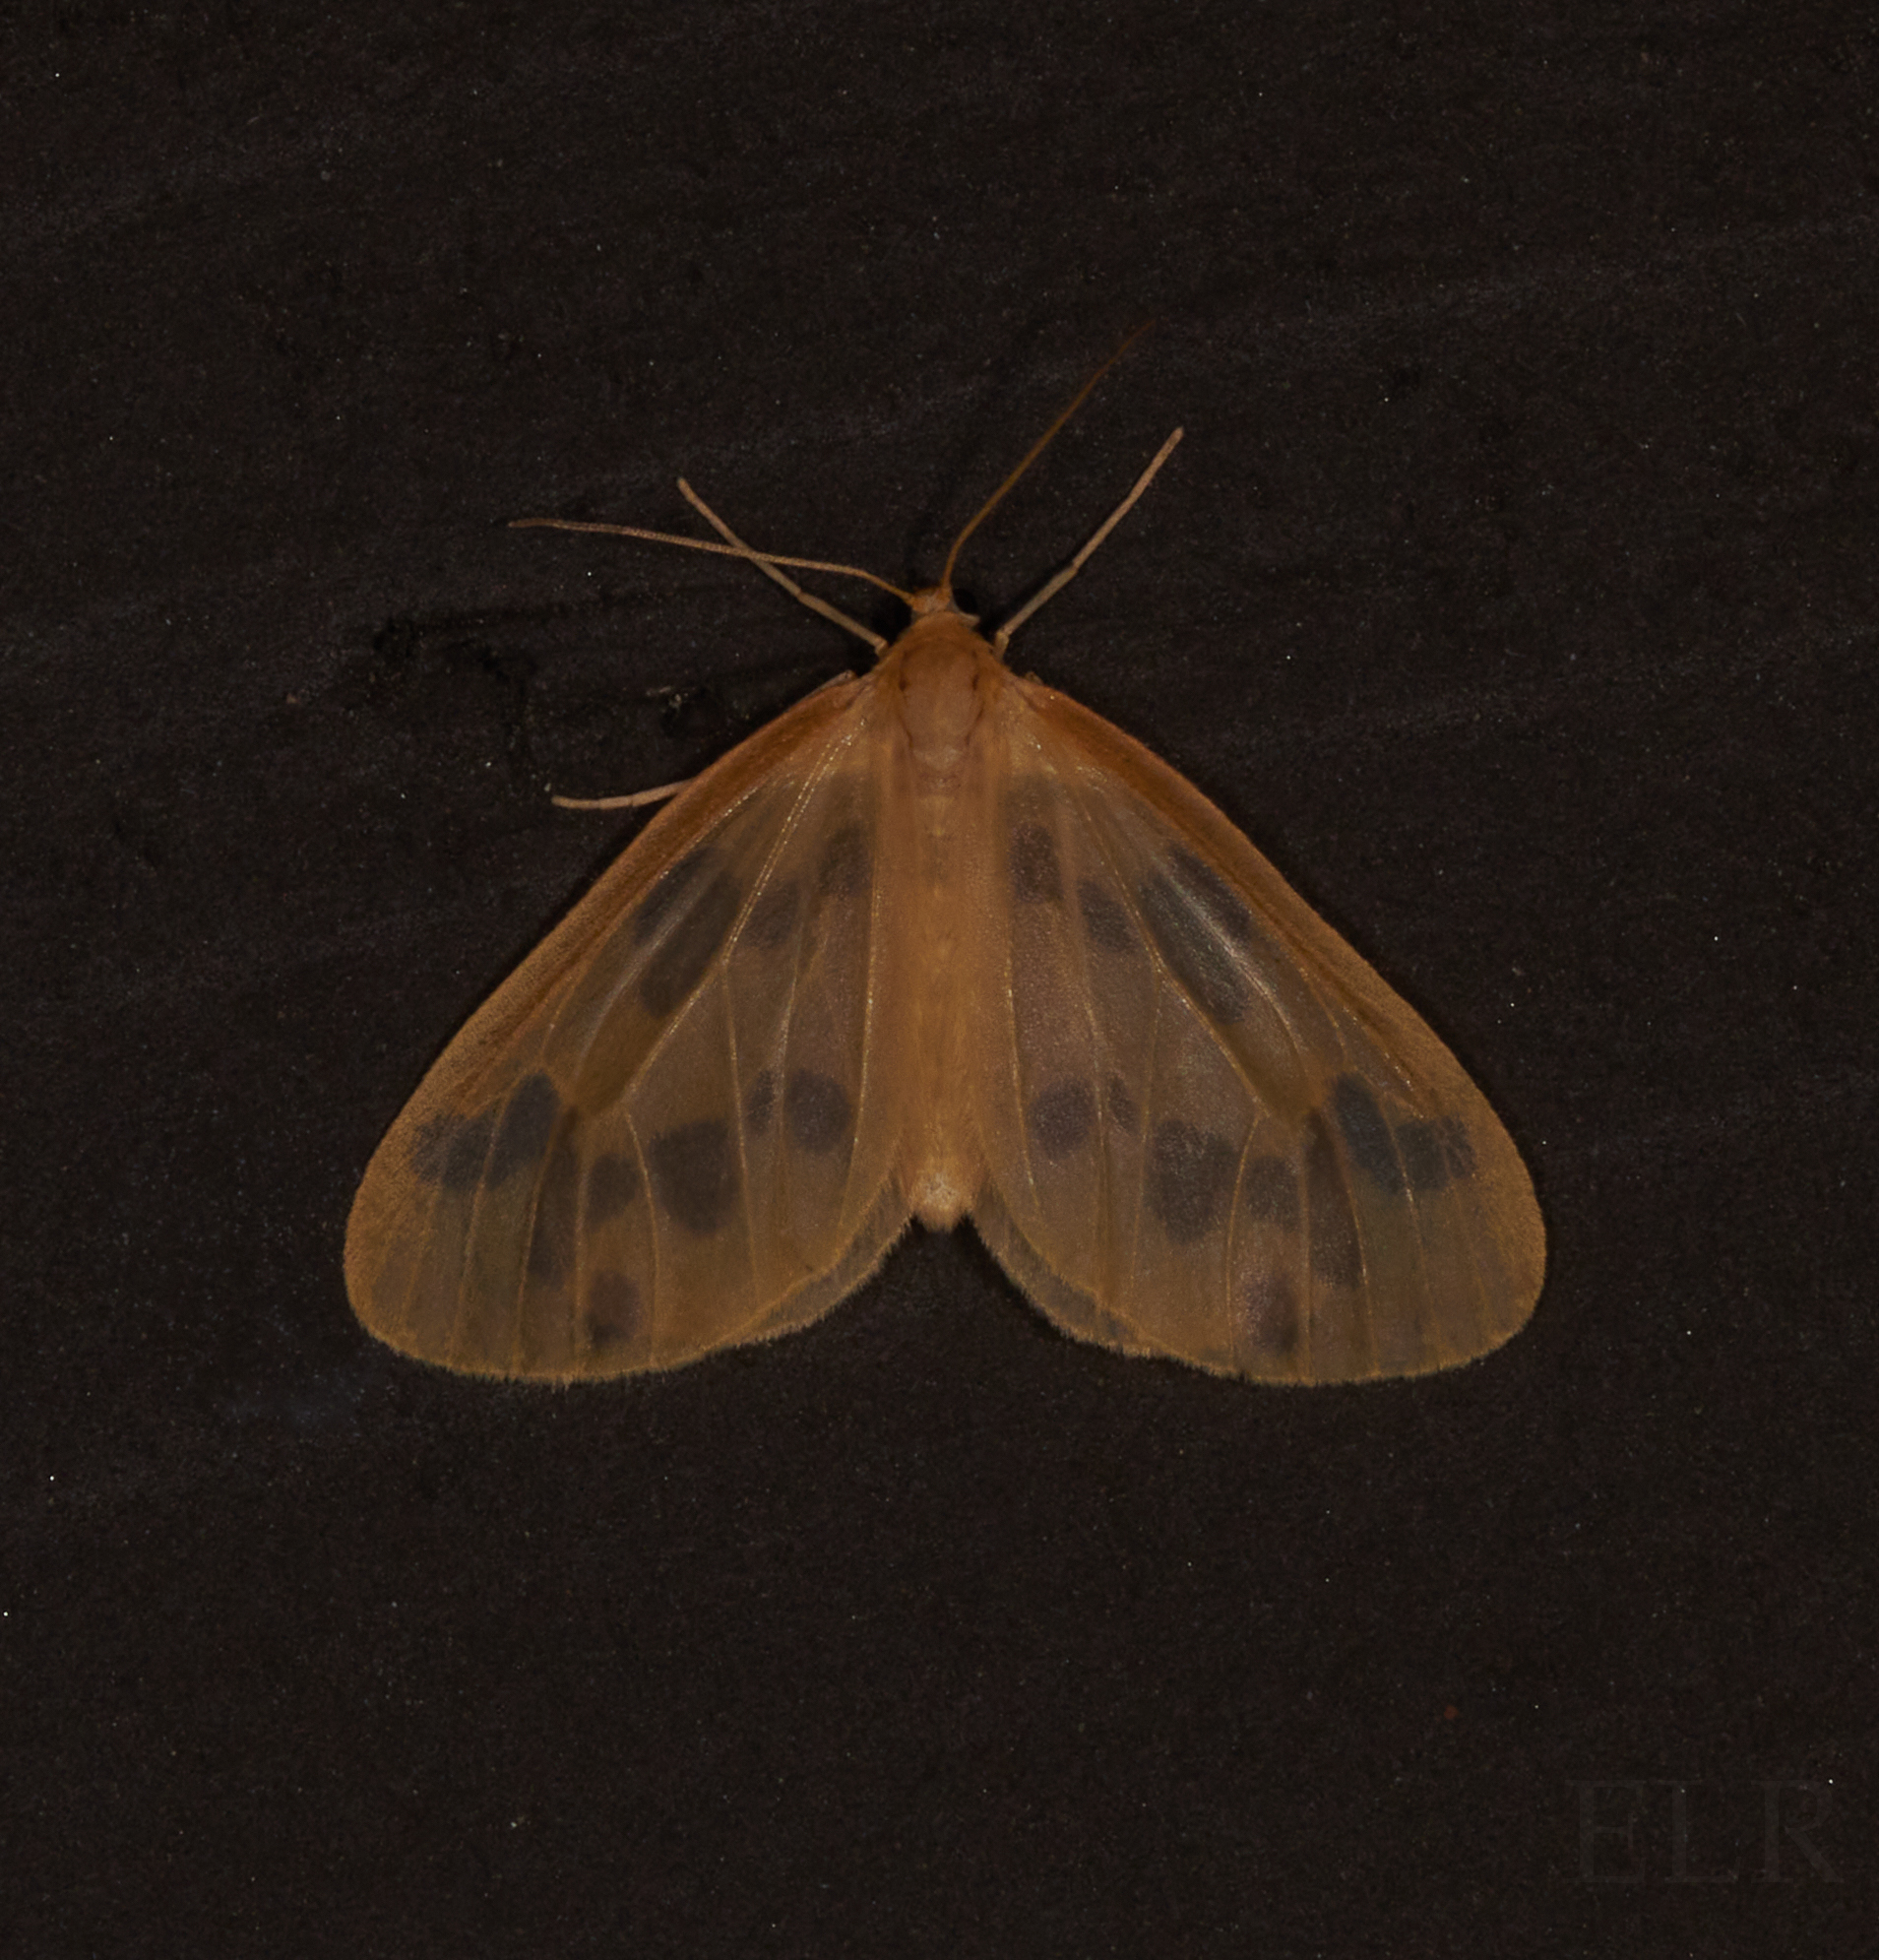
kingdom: Animalia
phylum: Arthropoda
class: Insecta
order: Lepidoptera
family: Geometridae
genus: Eubaphe
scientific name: Eubaphe mendica
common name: Beggar
